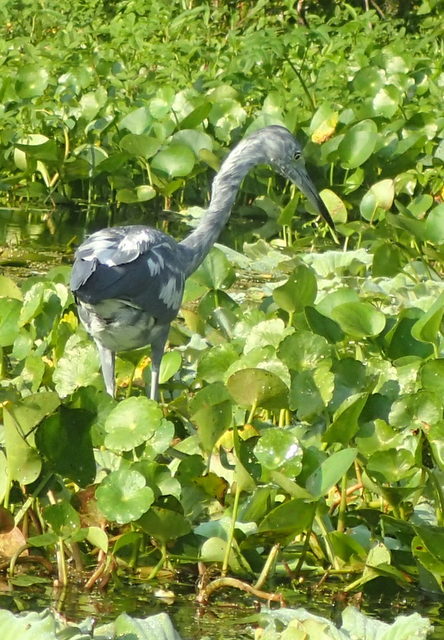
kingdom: Animalia
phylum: Chordata
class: Aves
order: Pelecaniformes
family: Ardeidae
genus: Egretta
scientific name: Egretta caerulea
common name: Little blue heron
